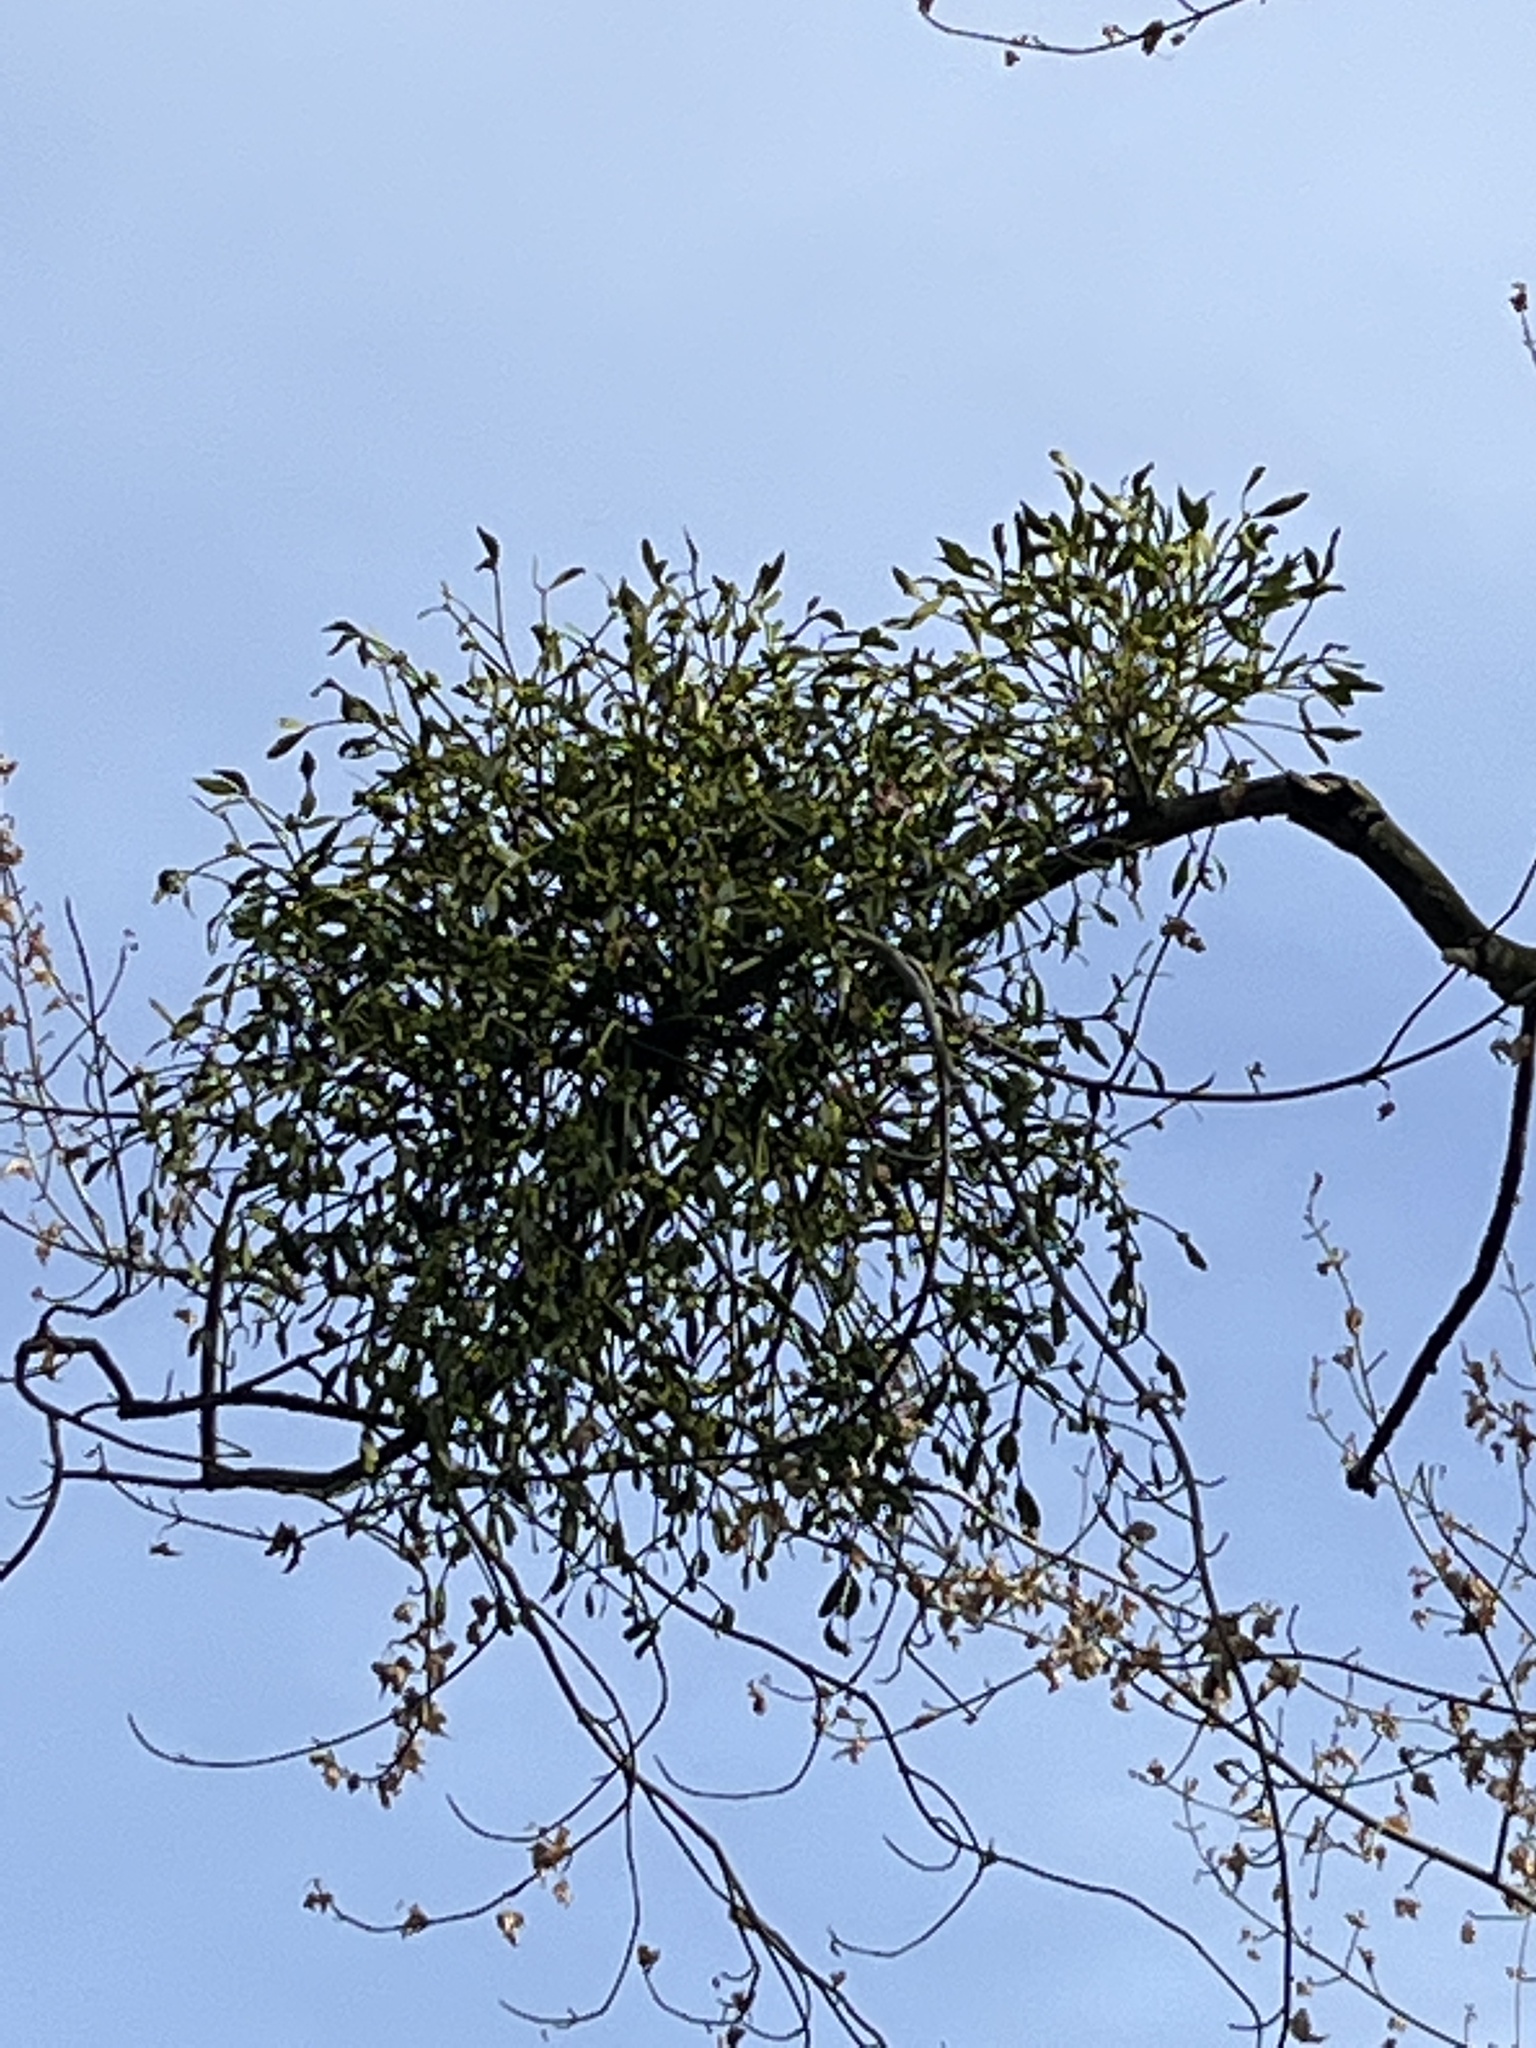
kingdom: Plantae
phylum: Tracheophyta
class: Magnoliopsida
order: Santalales
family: Viscaceae
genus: Viscum
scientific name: Viscum album
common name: Mistletoe
